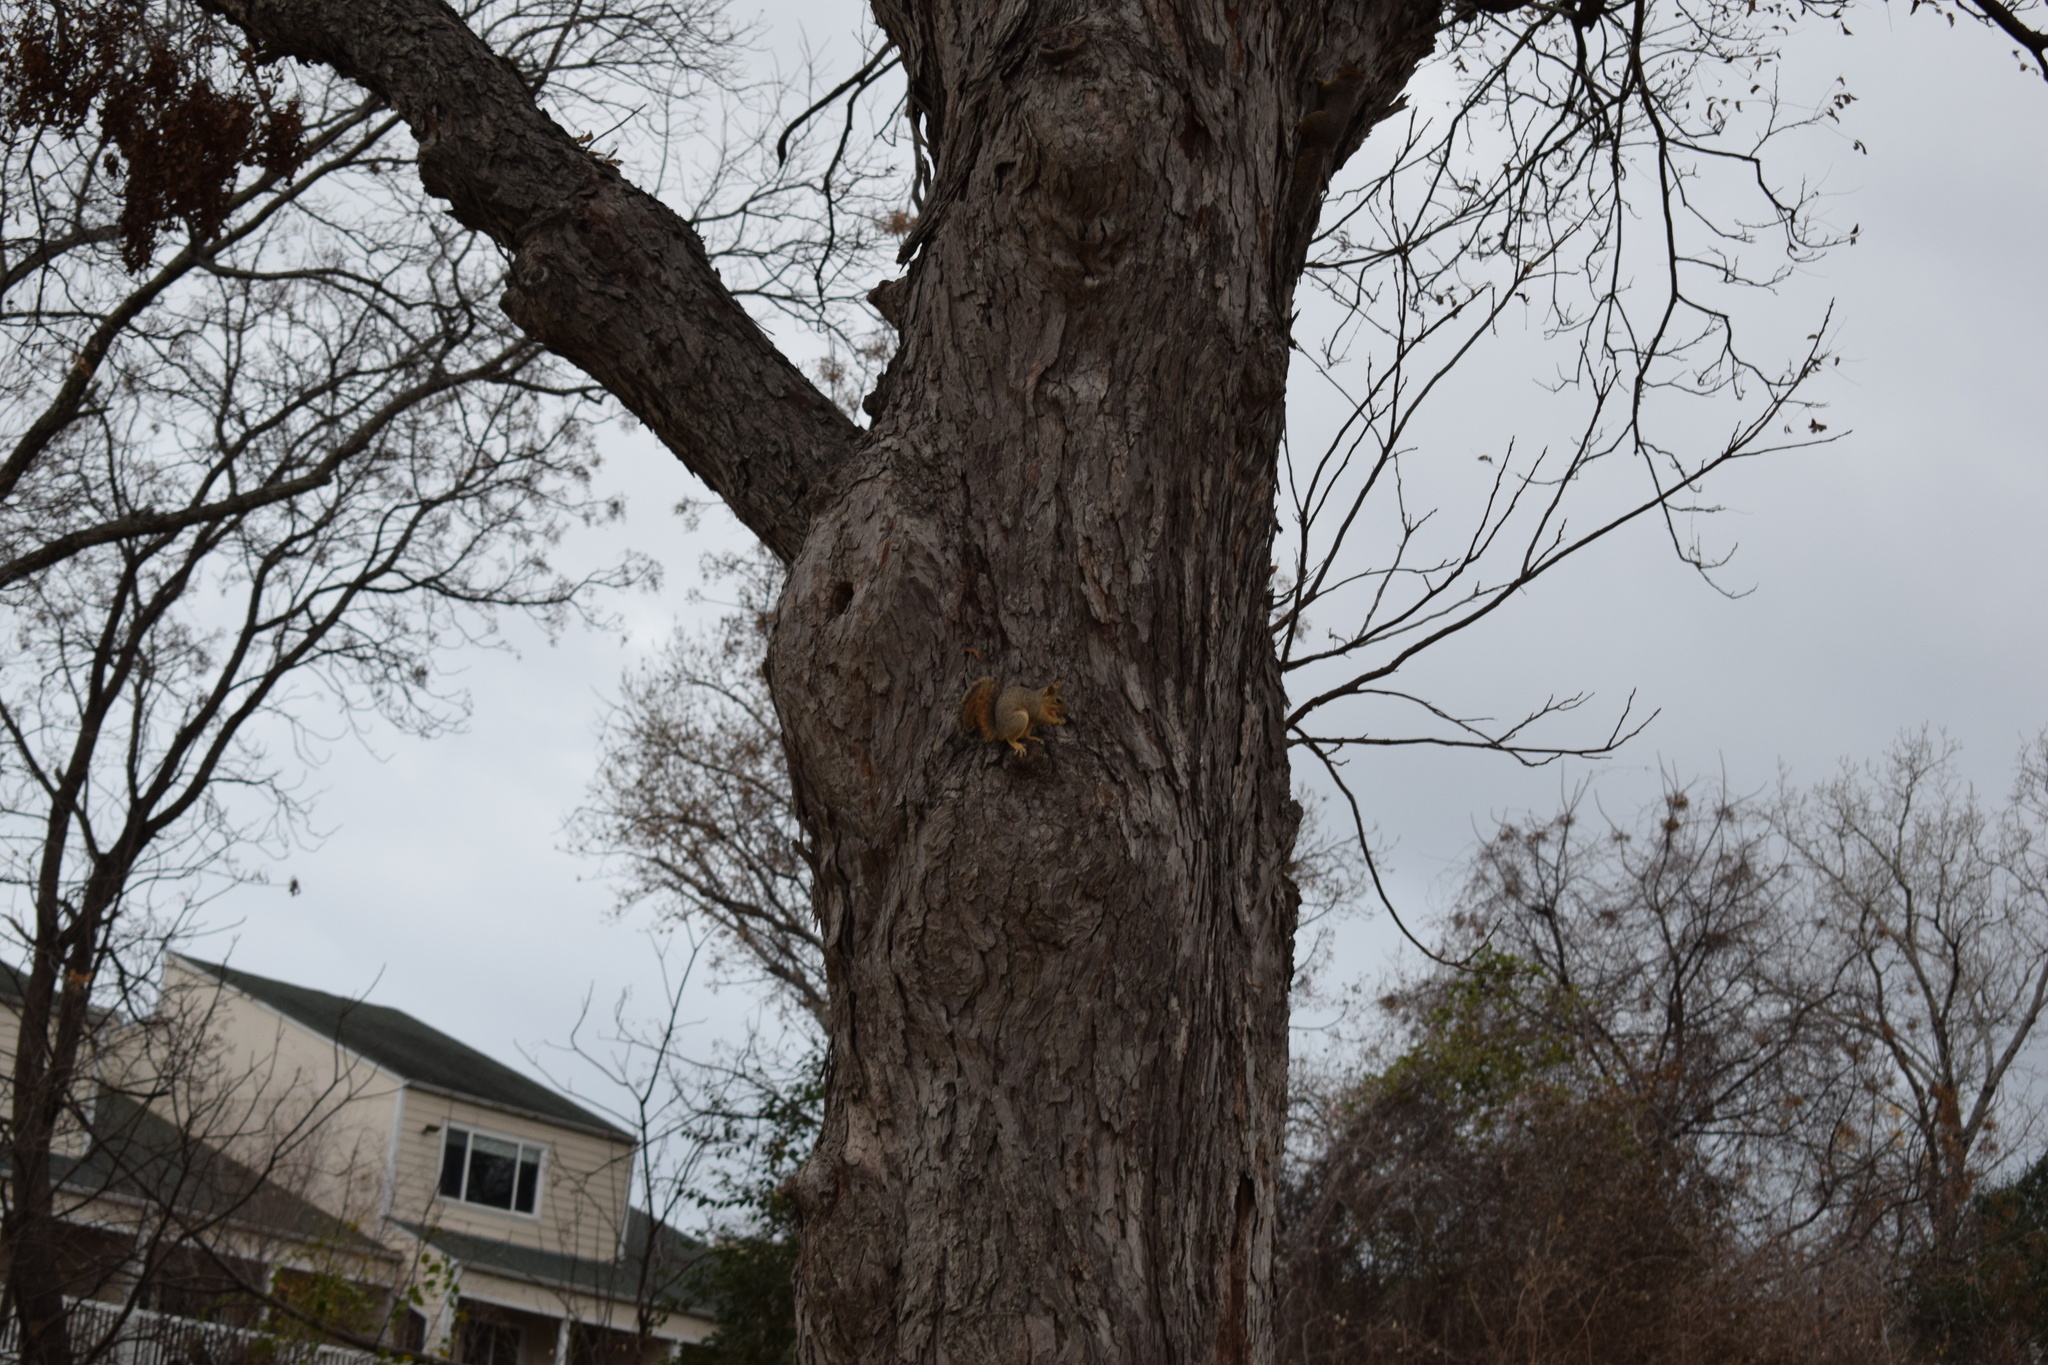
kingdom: Animalia
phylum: Chordata
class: Mammalia
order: Rodentia
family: Sciuridae
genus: Sciurus
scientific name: Sciurus niger
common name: Fox squirrel
